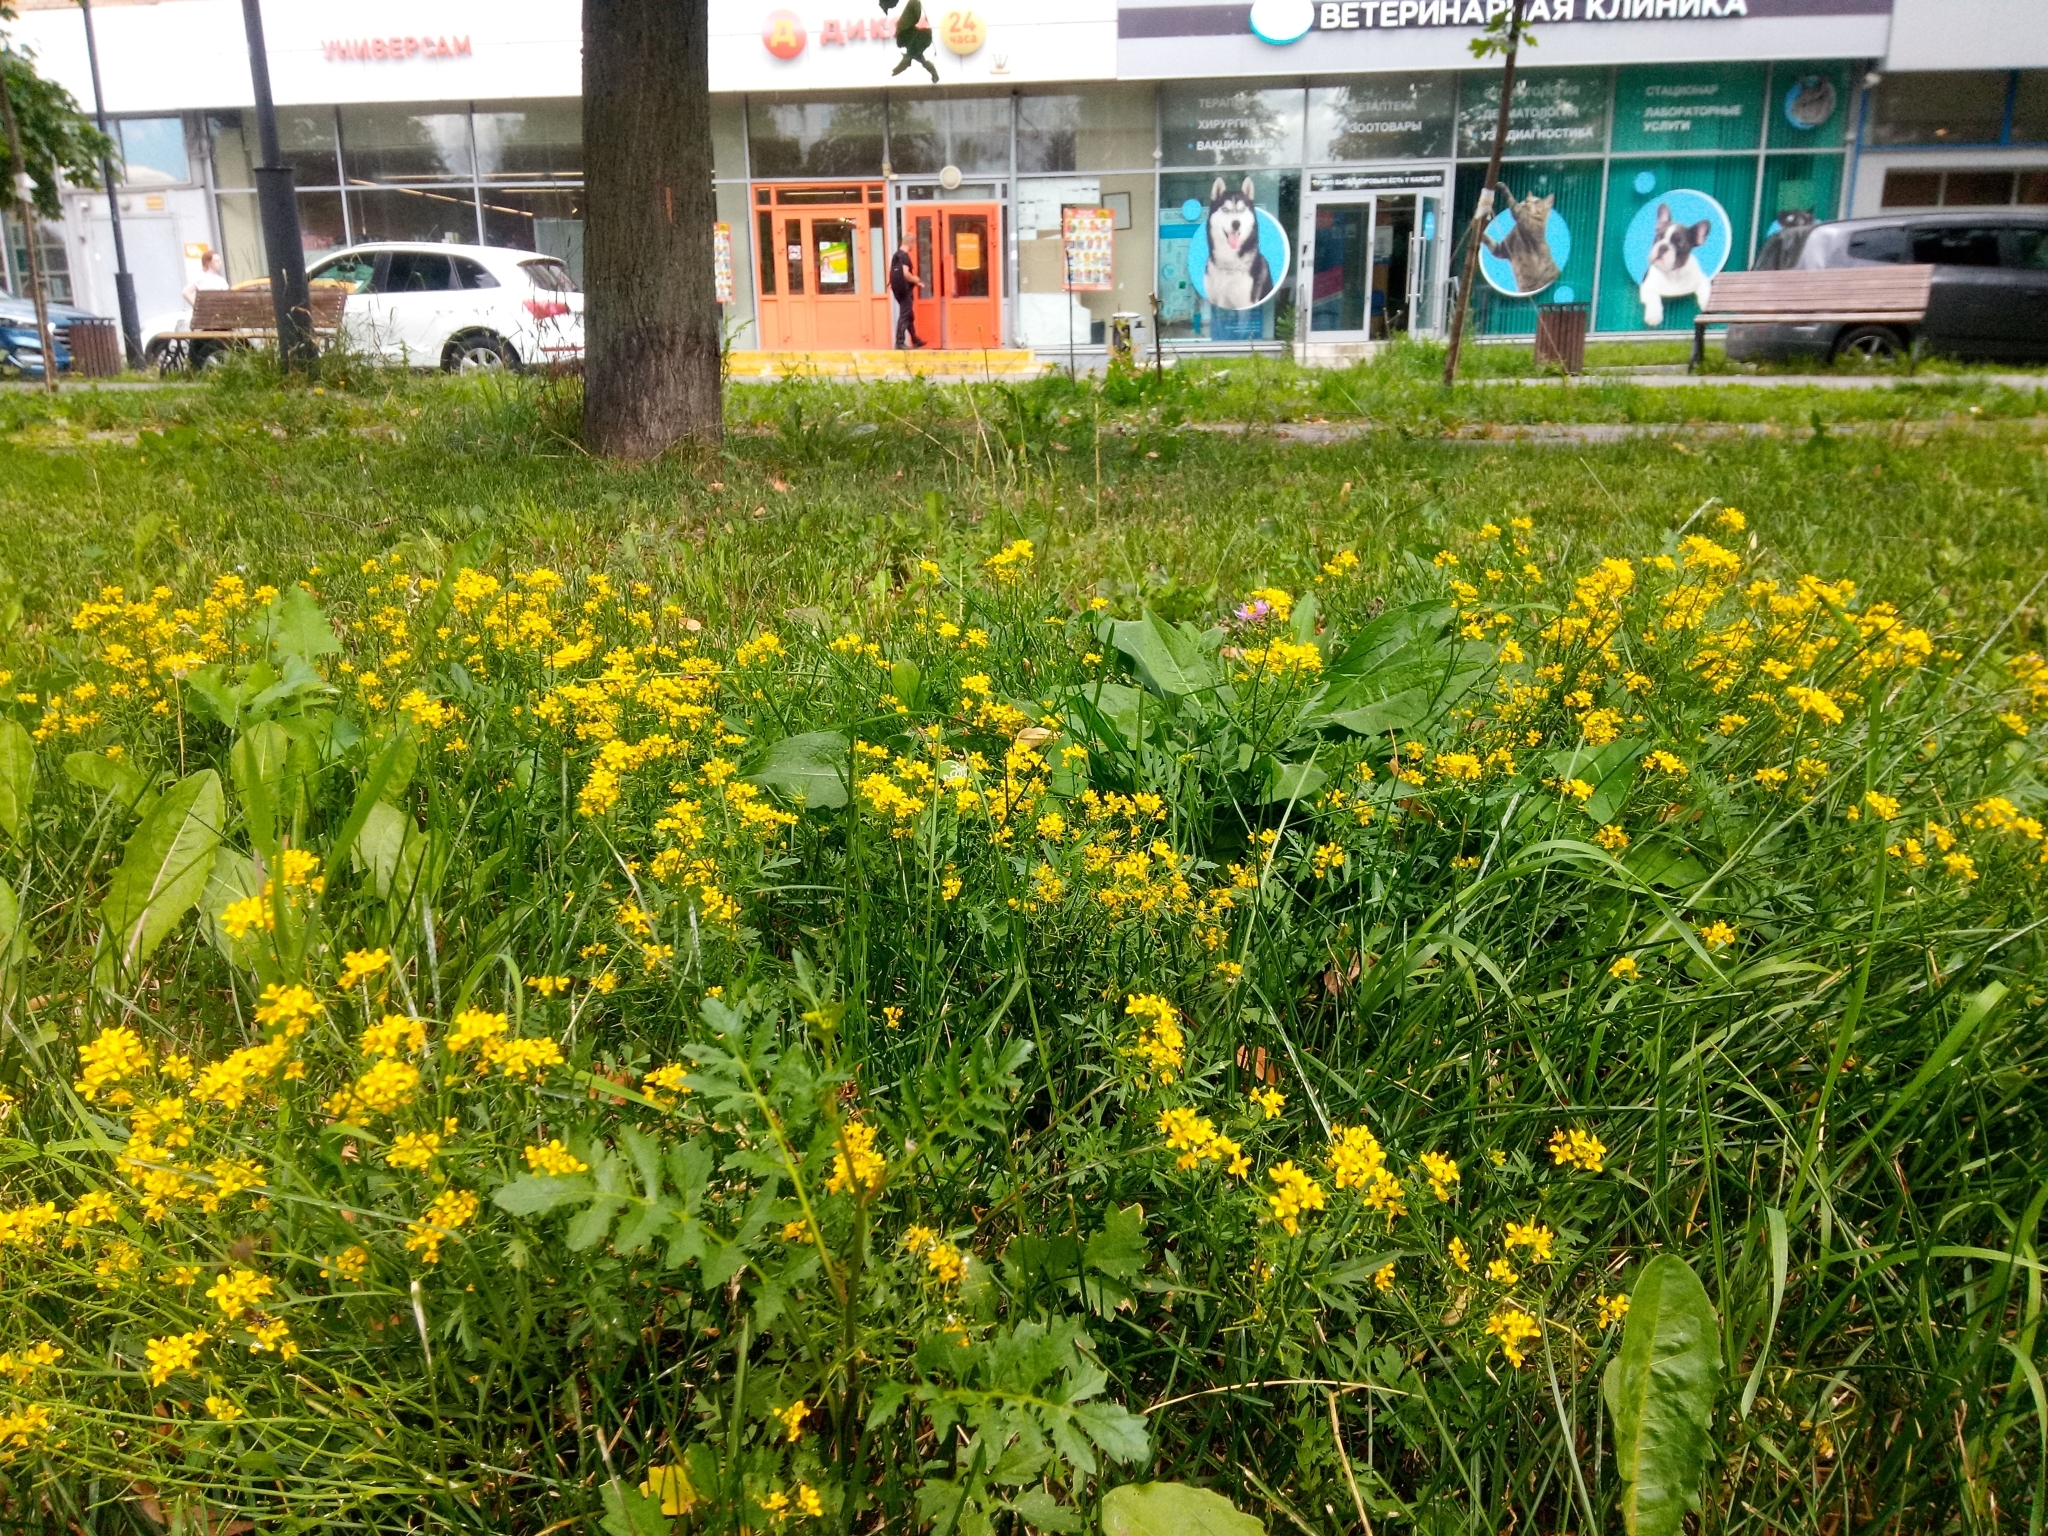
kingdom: Plantae
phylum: Tracheophyta
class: Magnoliopsida
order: Brassicales
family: Brassicaceae
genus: Rorippa
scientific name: Rorippa sylvestris
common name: Creeping yellowcress
